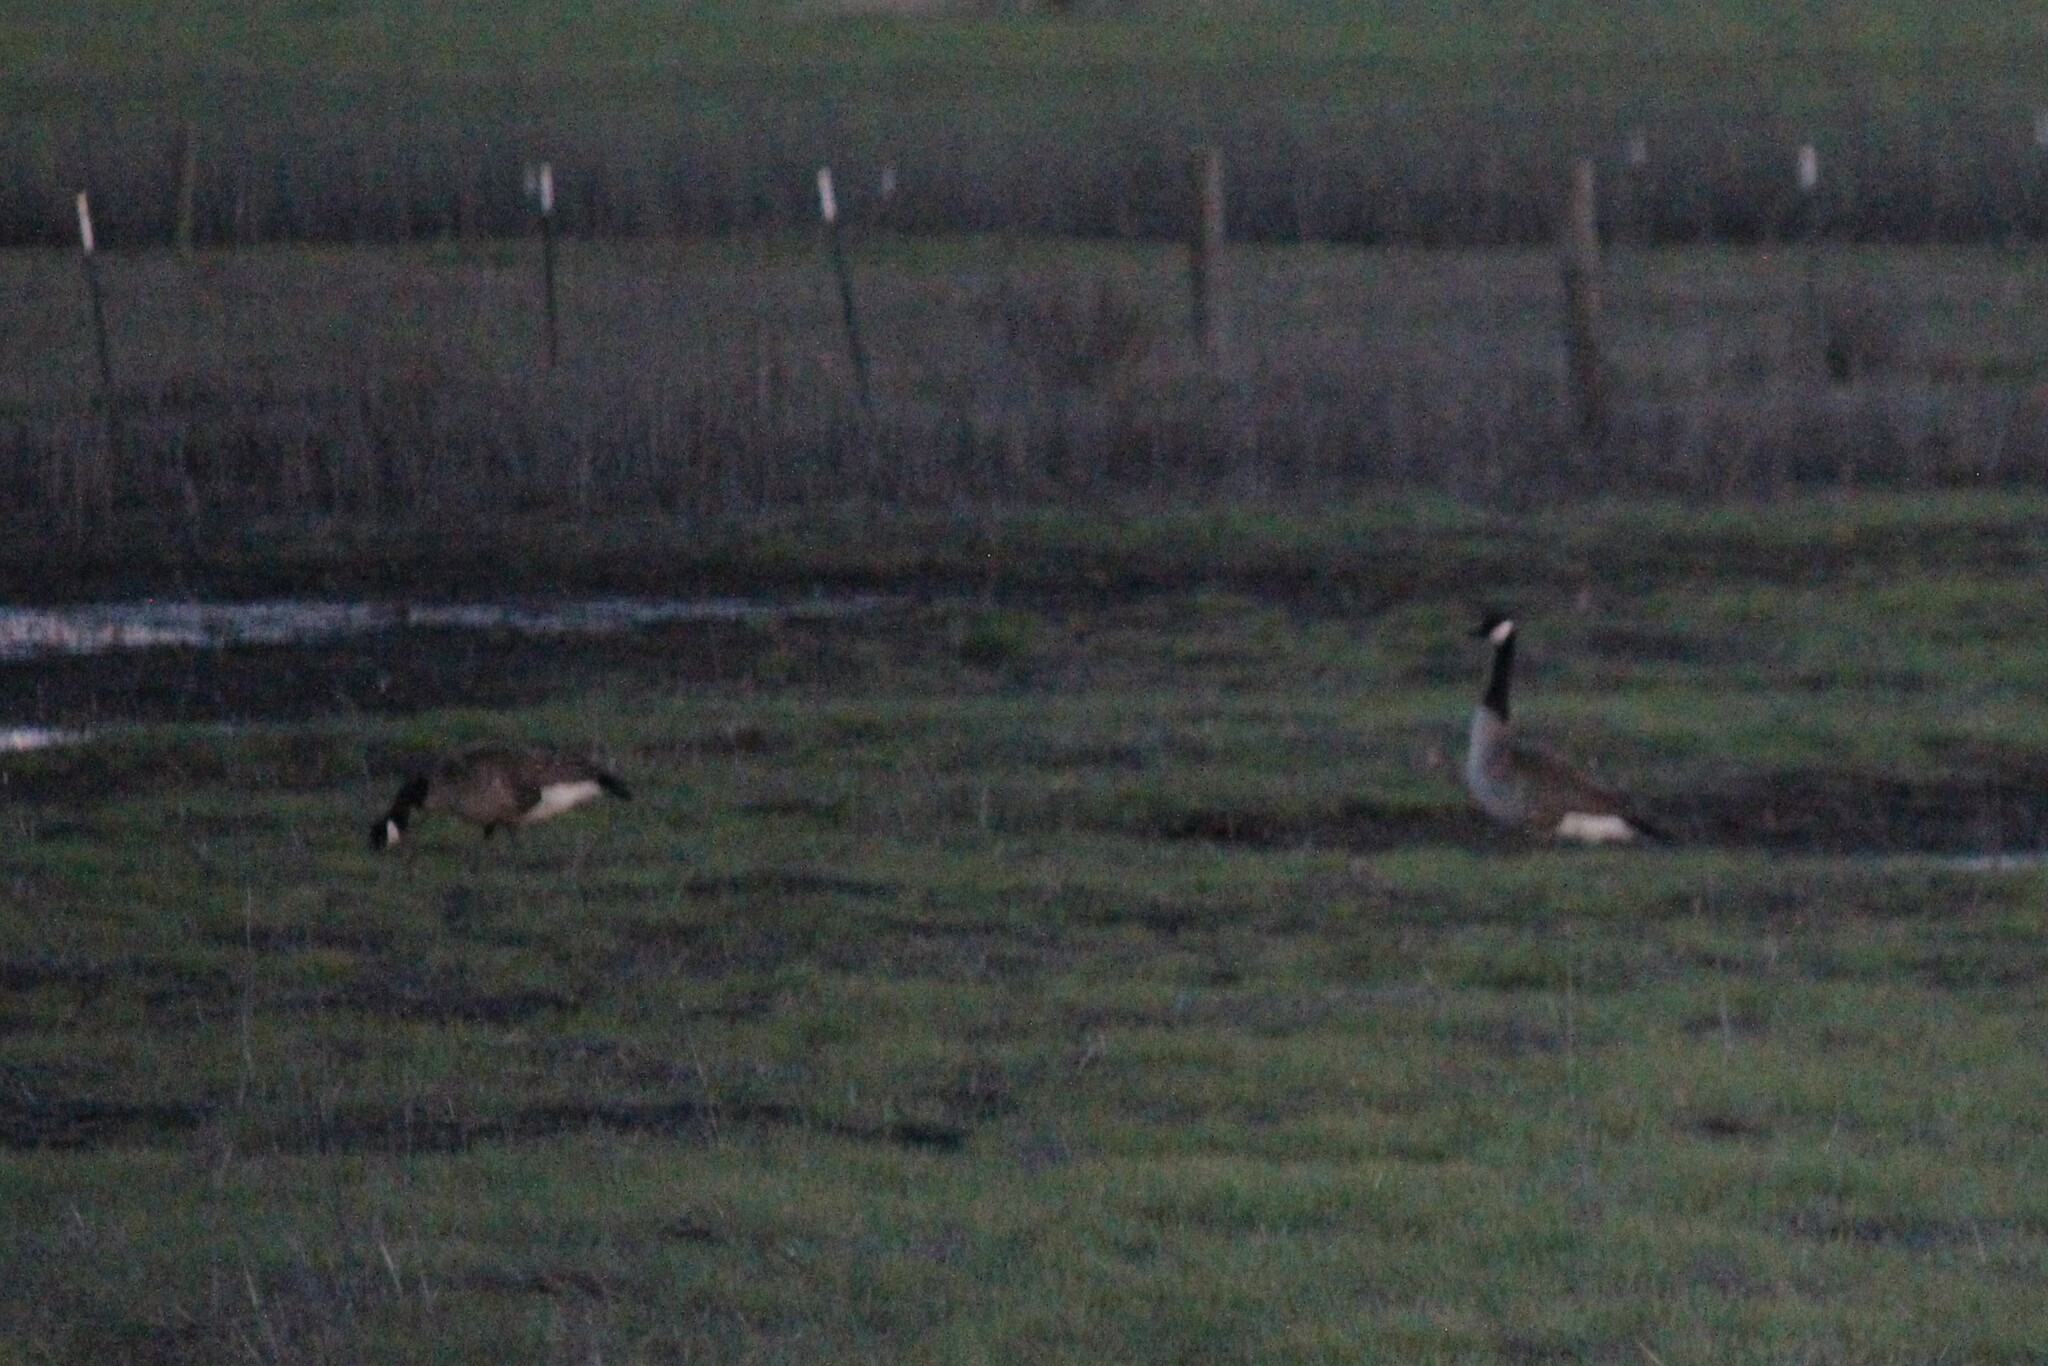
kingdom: Animalia
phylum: Chordata
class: Aves
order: Anseriformes
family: Anatidae
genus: Branta
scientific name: Branta canadensis
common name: Canada goose
